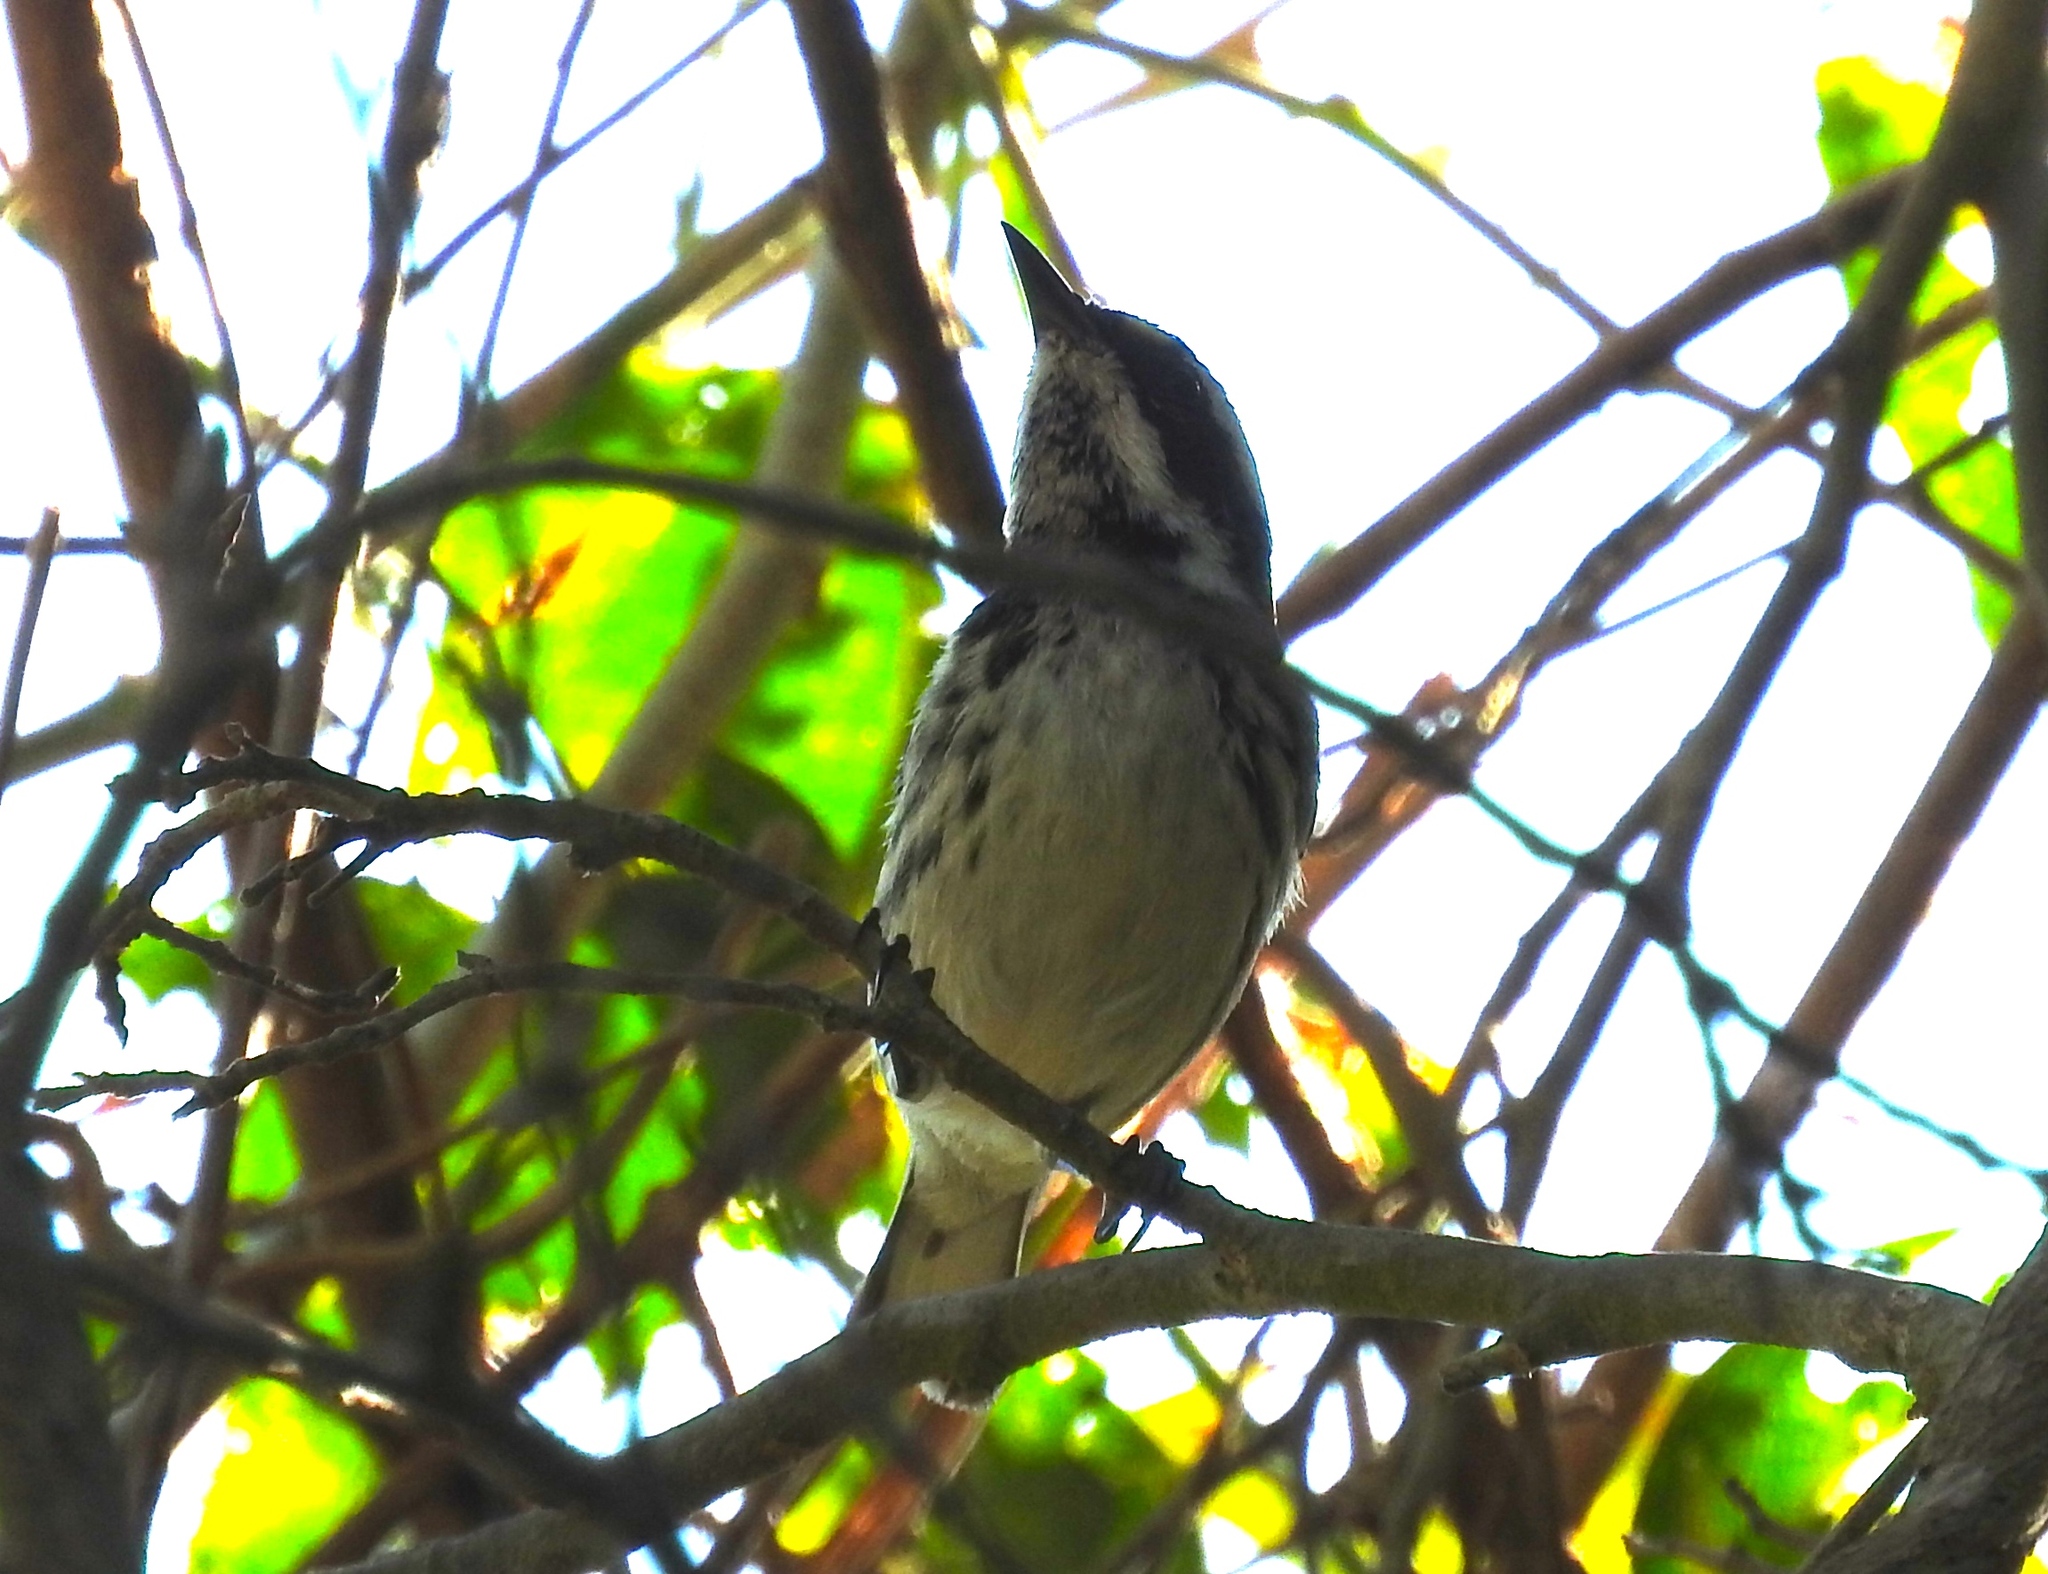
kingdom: Animalia
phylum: Chordata
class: Aves
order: Passeriformes
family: Parulidae
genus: Setophaga
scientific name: Setophaga nigrescens
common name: Black-throated gray warbler
